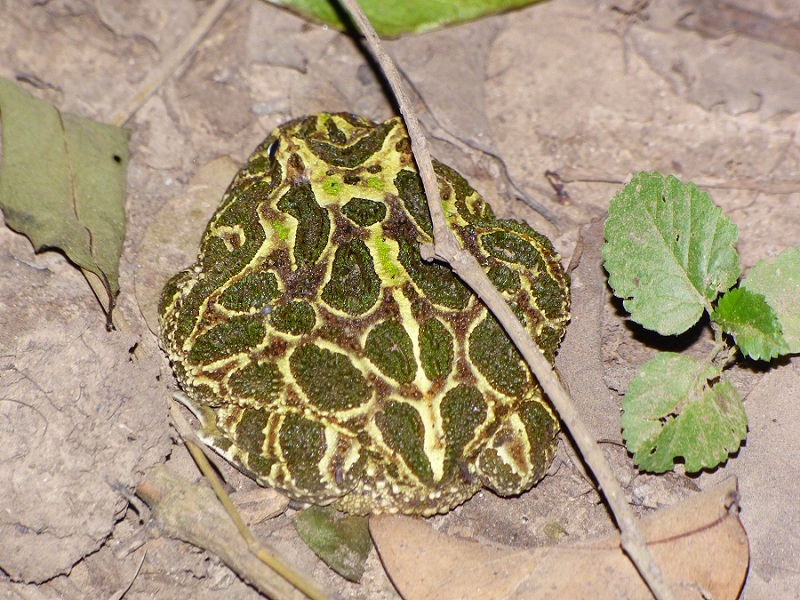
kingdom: Animalia
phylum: Chordata
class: Amphibia
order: Anura
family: Ceratophryidae
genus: Ceratophrys
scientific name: Ceratophrys cranwelli
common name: Chacoan horned frog
